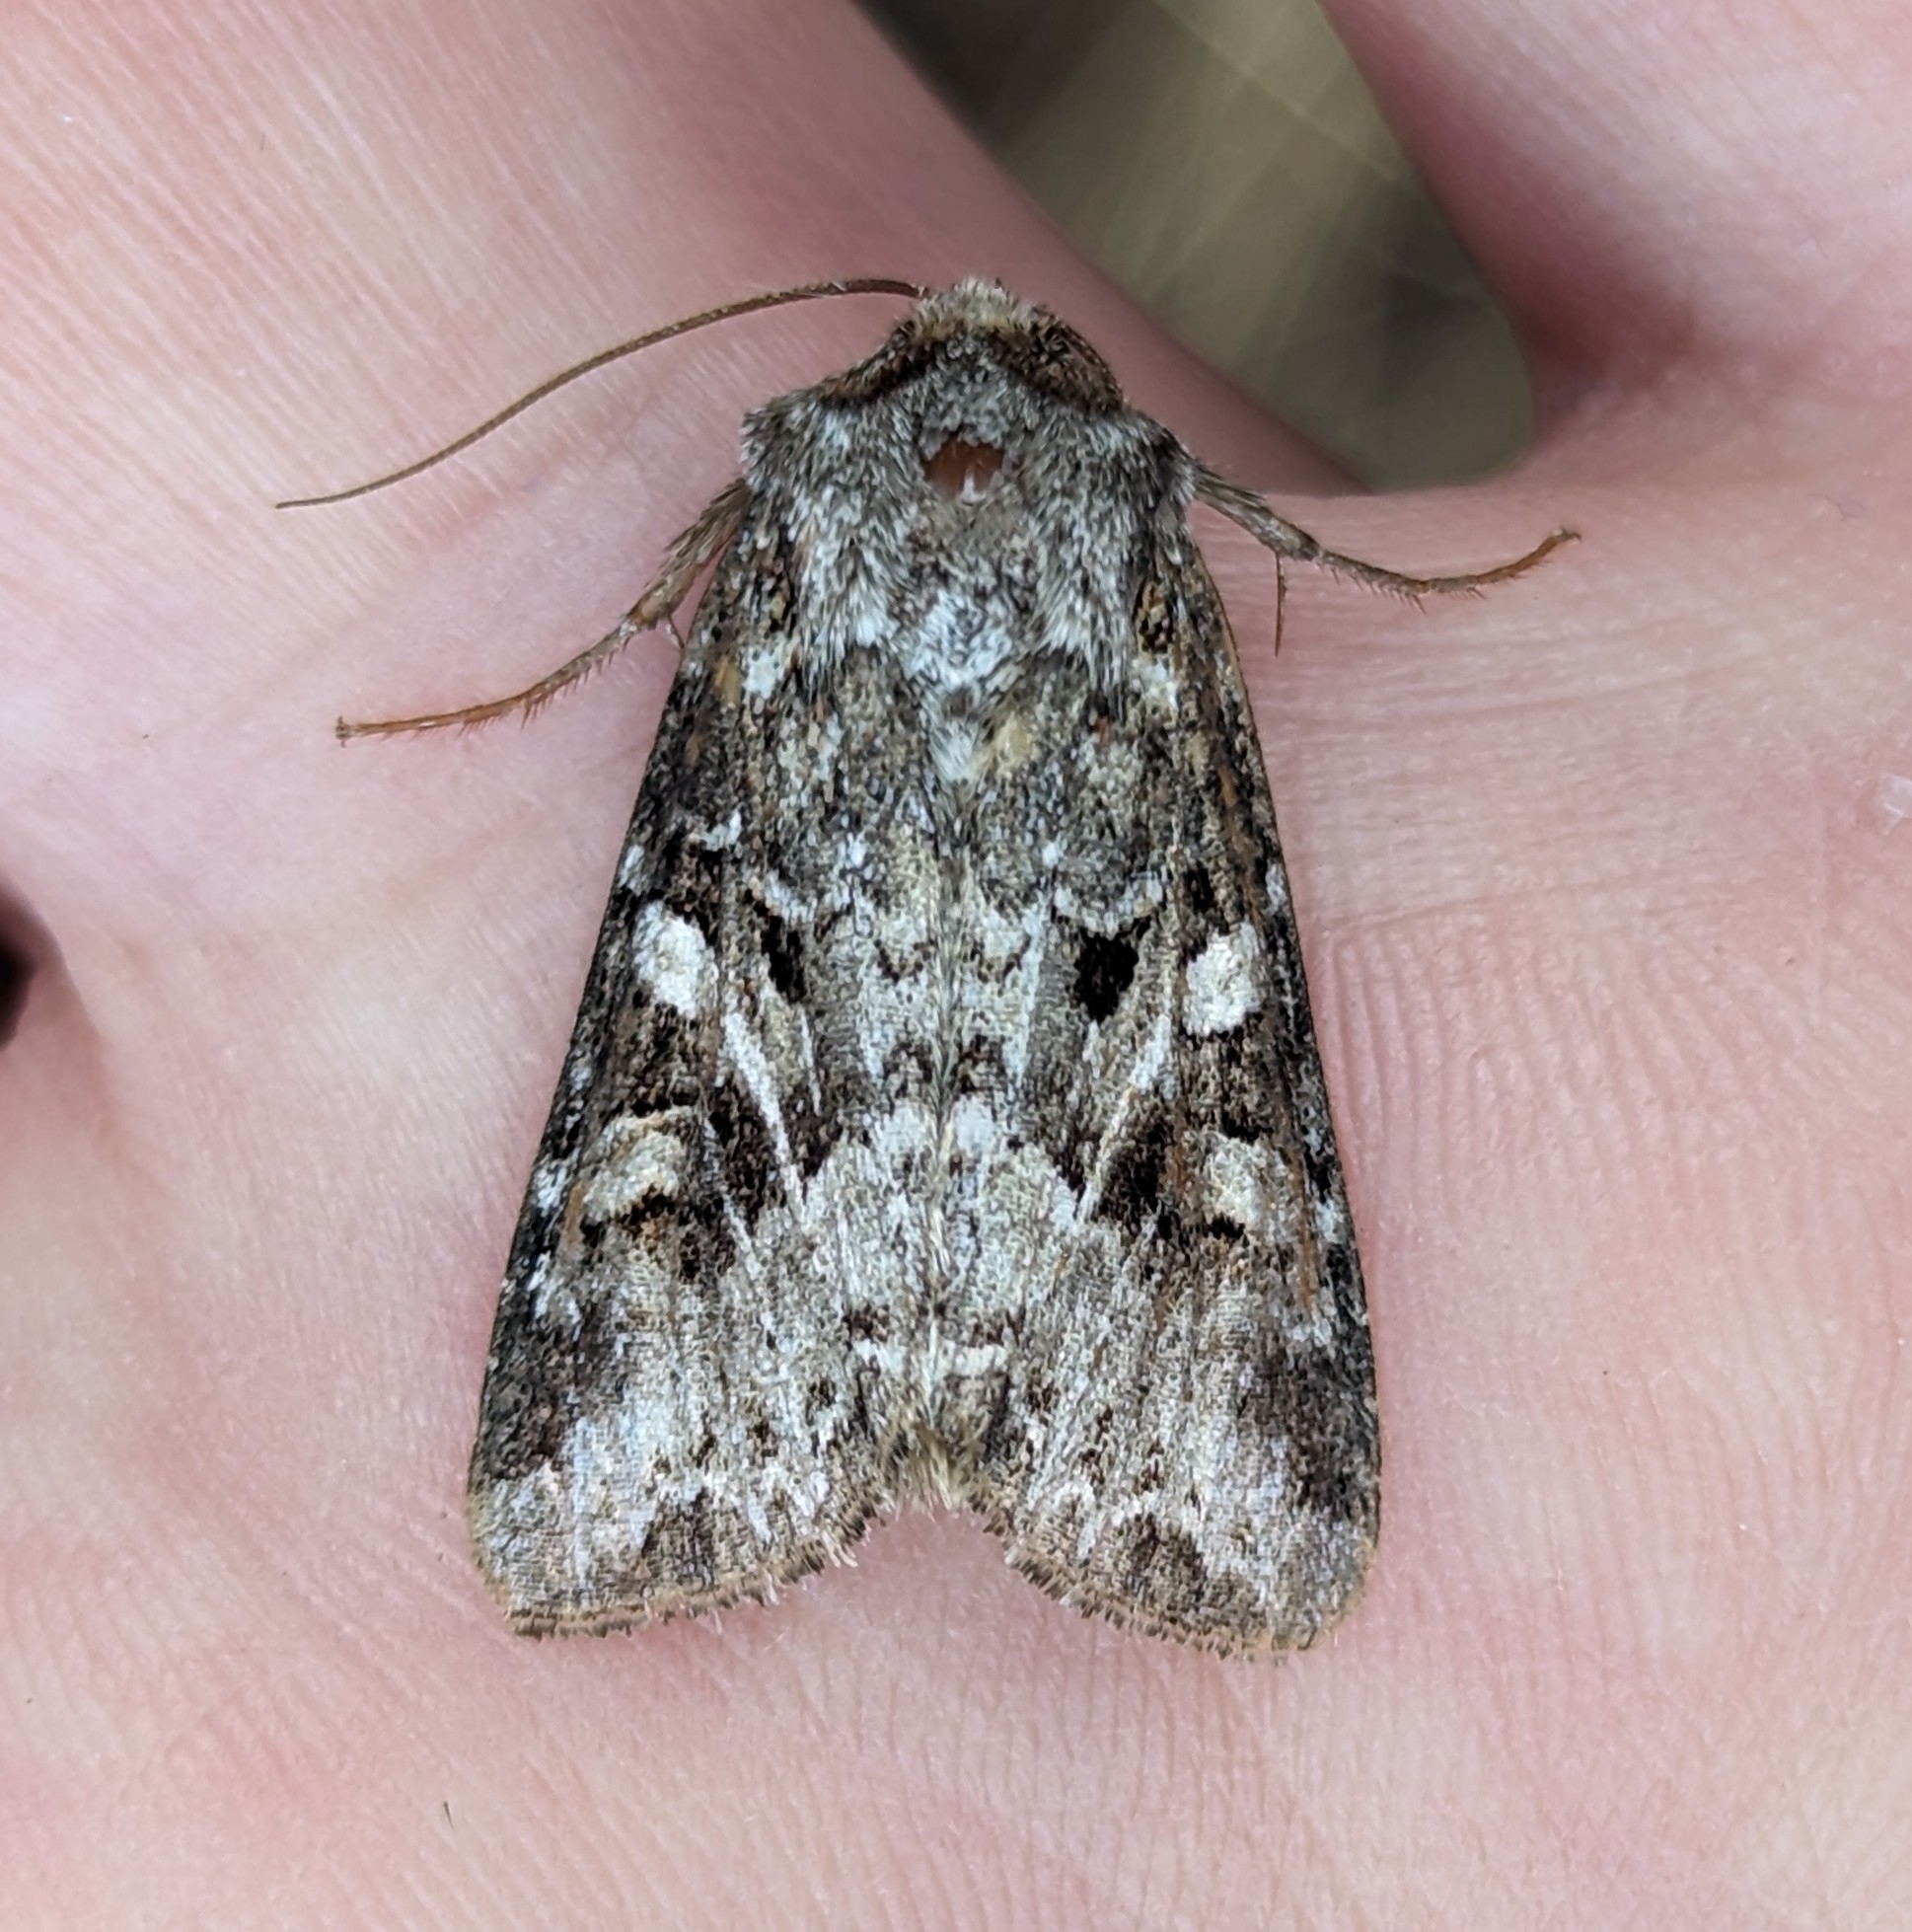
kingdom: Animalia
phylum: Arthropoda
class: Insecta
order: Lepidoptera
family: Noctuidae
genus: Trichordestra
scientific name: Trichordestra liquida
